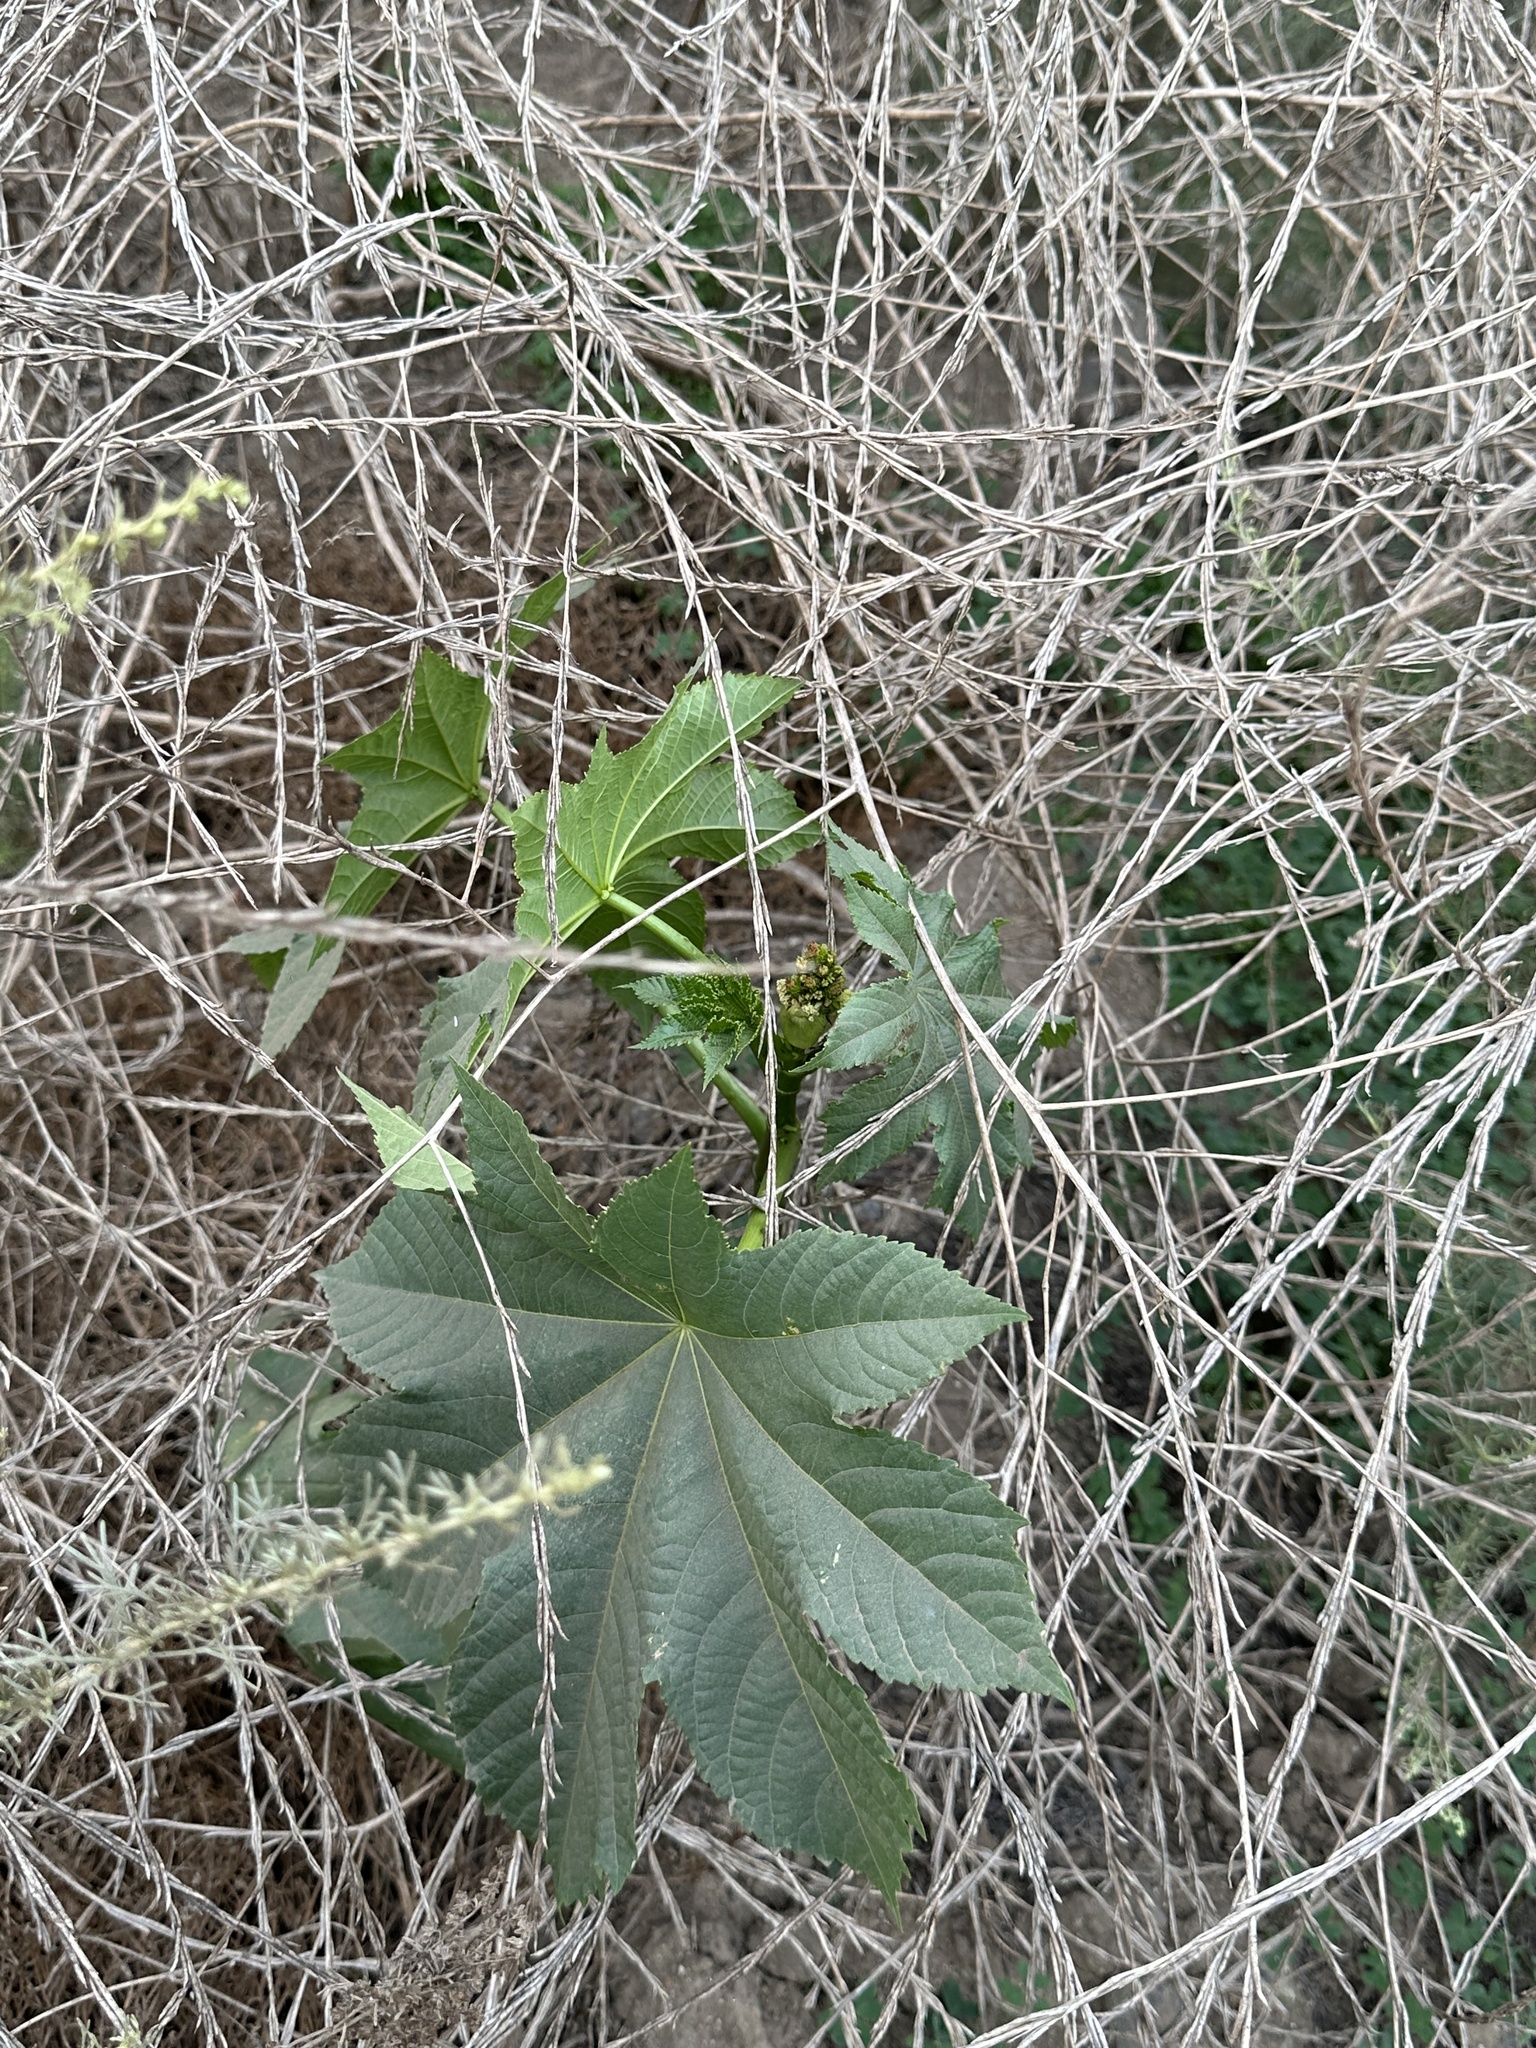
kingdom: Plantae
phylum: Tracheophyta
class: Magnoliopsida
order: Malpighiales
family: Euphorbiaceae
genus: Ricinus
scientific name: Ricinus communis
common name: Castor-oil-plant
